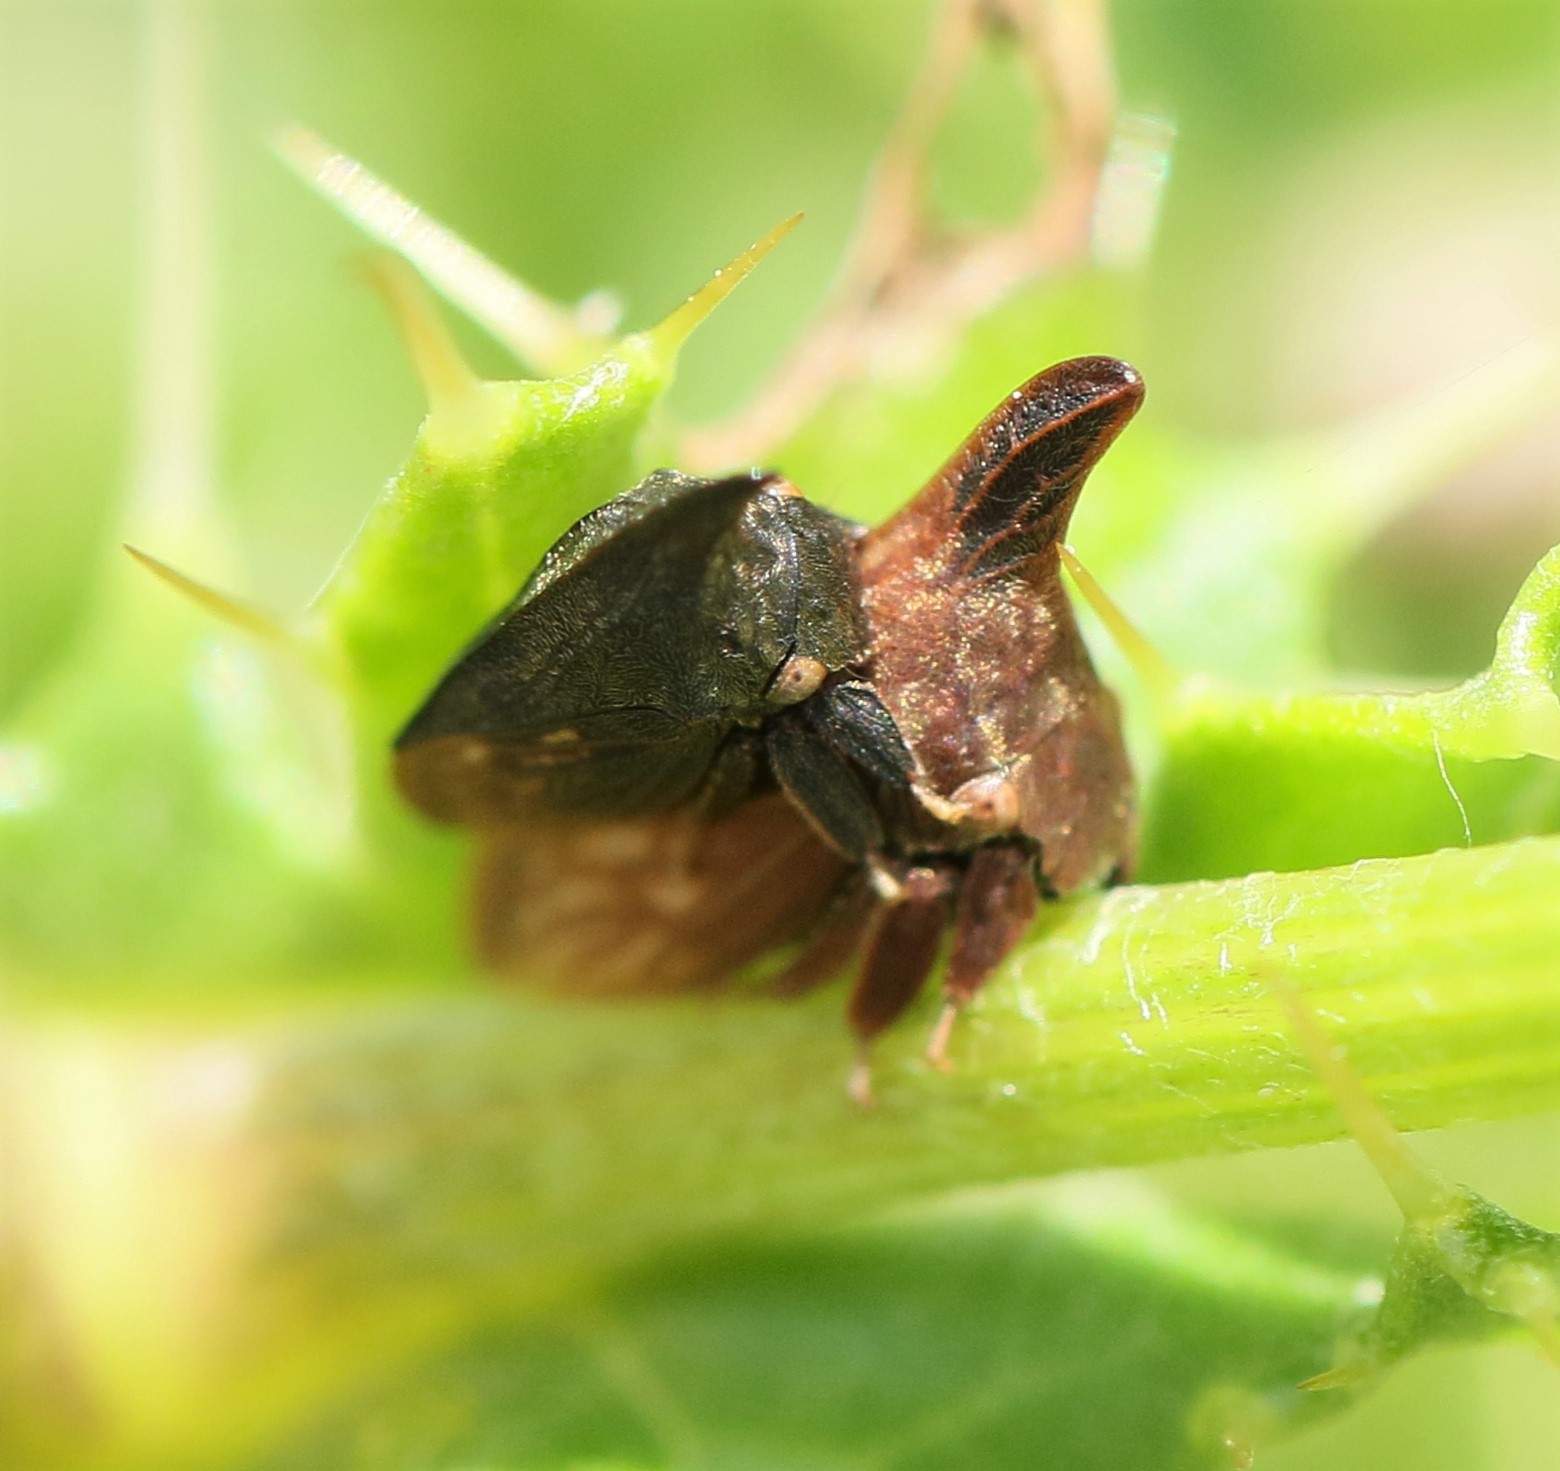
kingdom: Animalia
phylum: Arthropoda
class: Insecta
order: Hemiptera
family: Membracidae
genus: Enchenopa
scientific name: Enchenopa latipes
